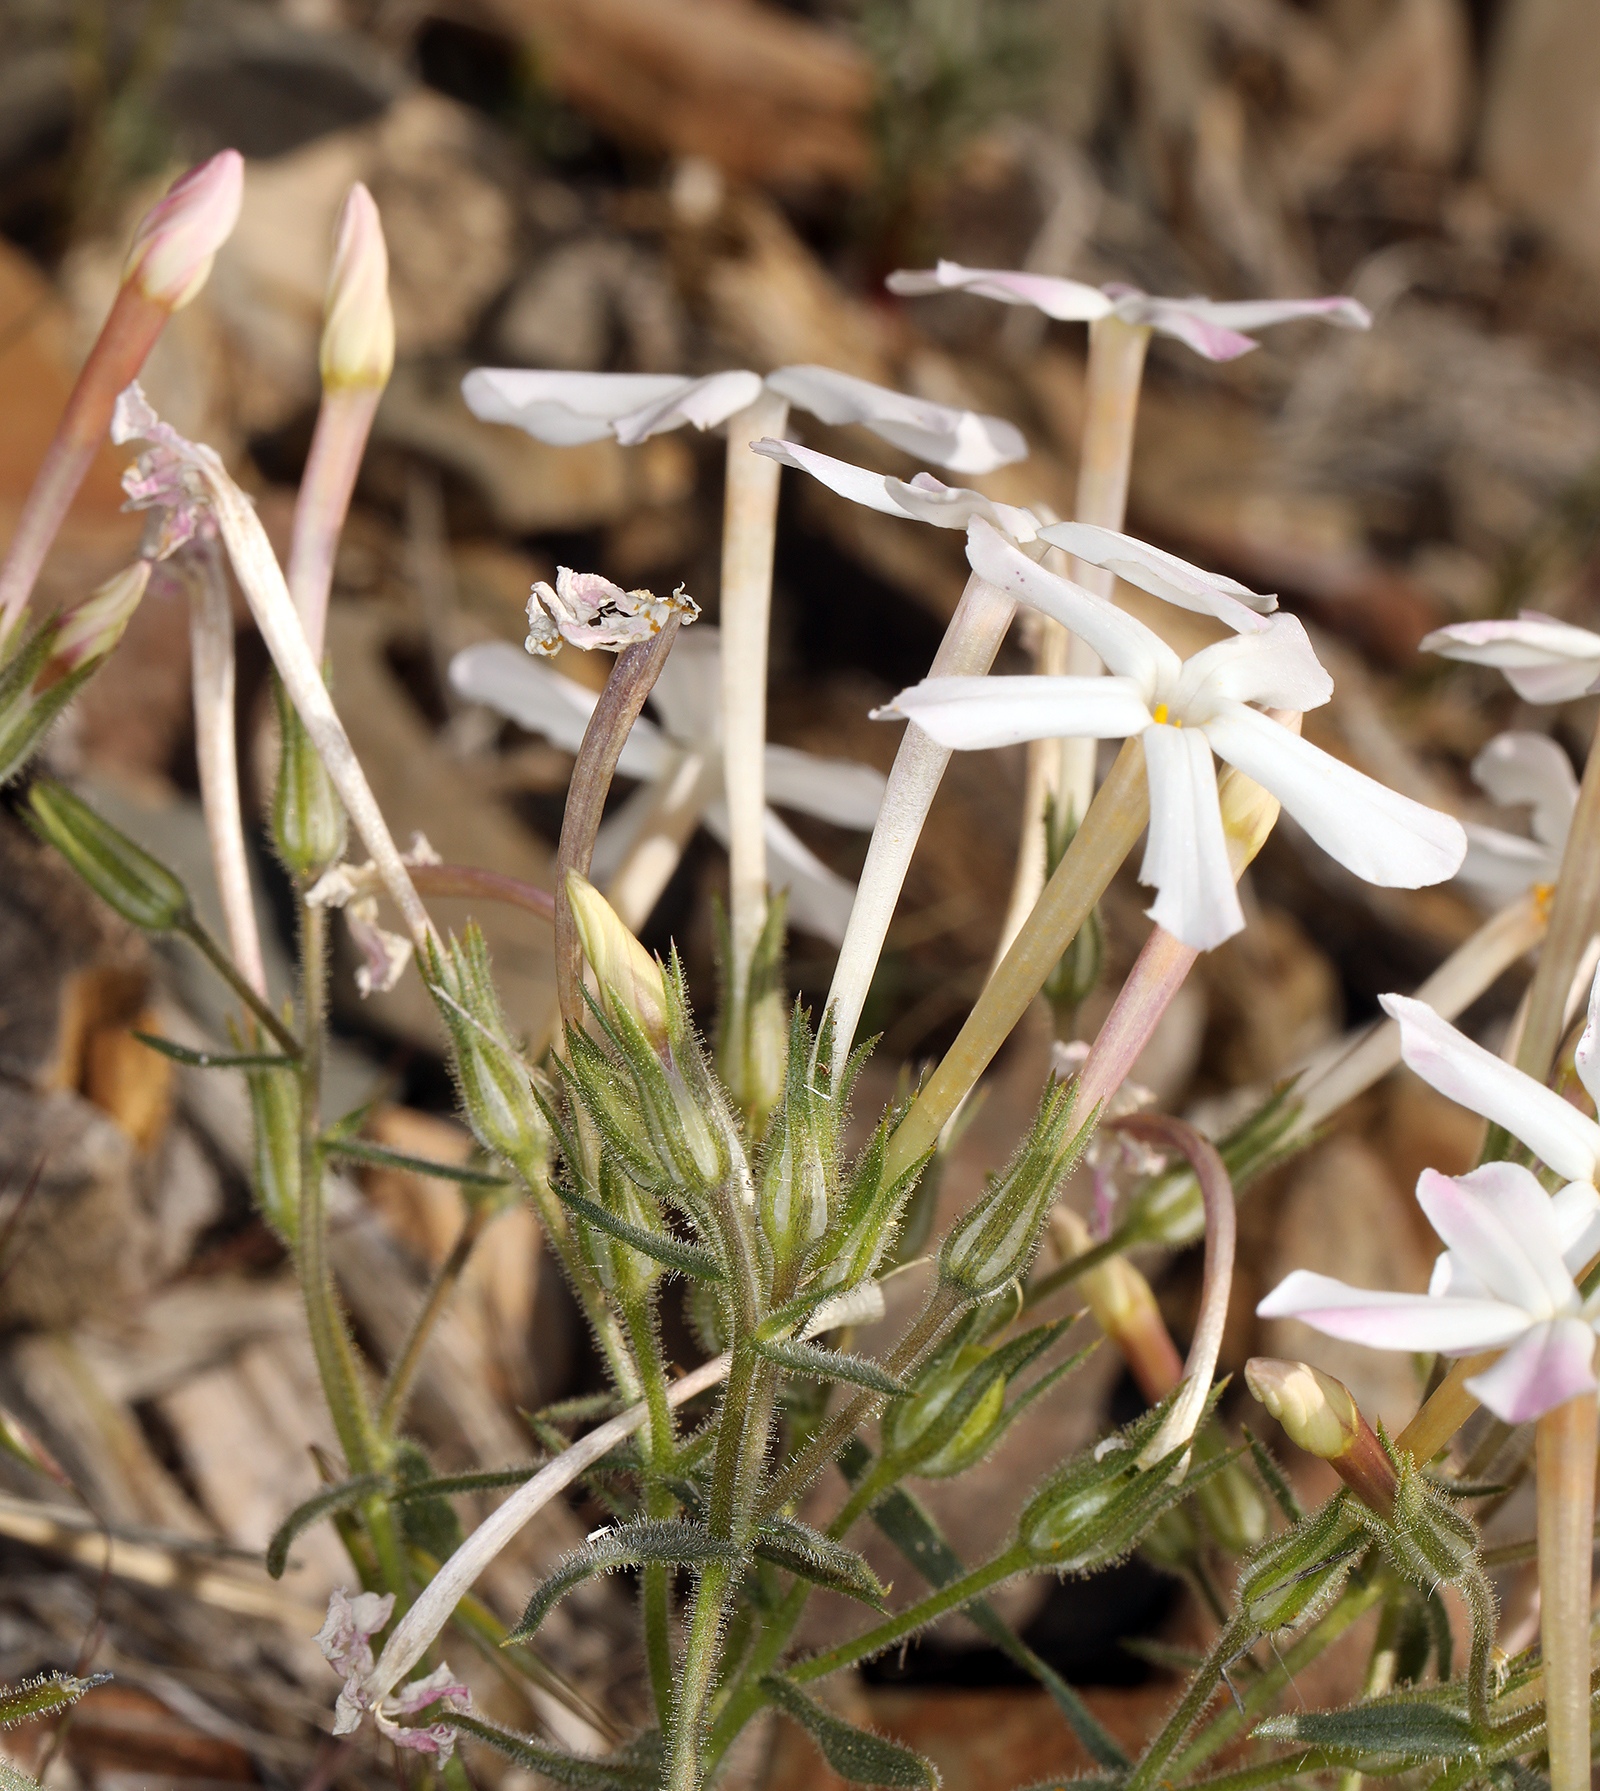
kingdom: Plantae
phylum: Tracheophyta
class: Magnoliopsida
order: Ericales
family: Polemoniaceae
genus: Phlox
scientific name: Phlox longifolia
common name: Longleaf phlox
